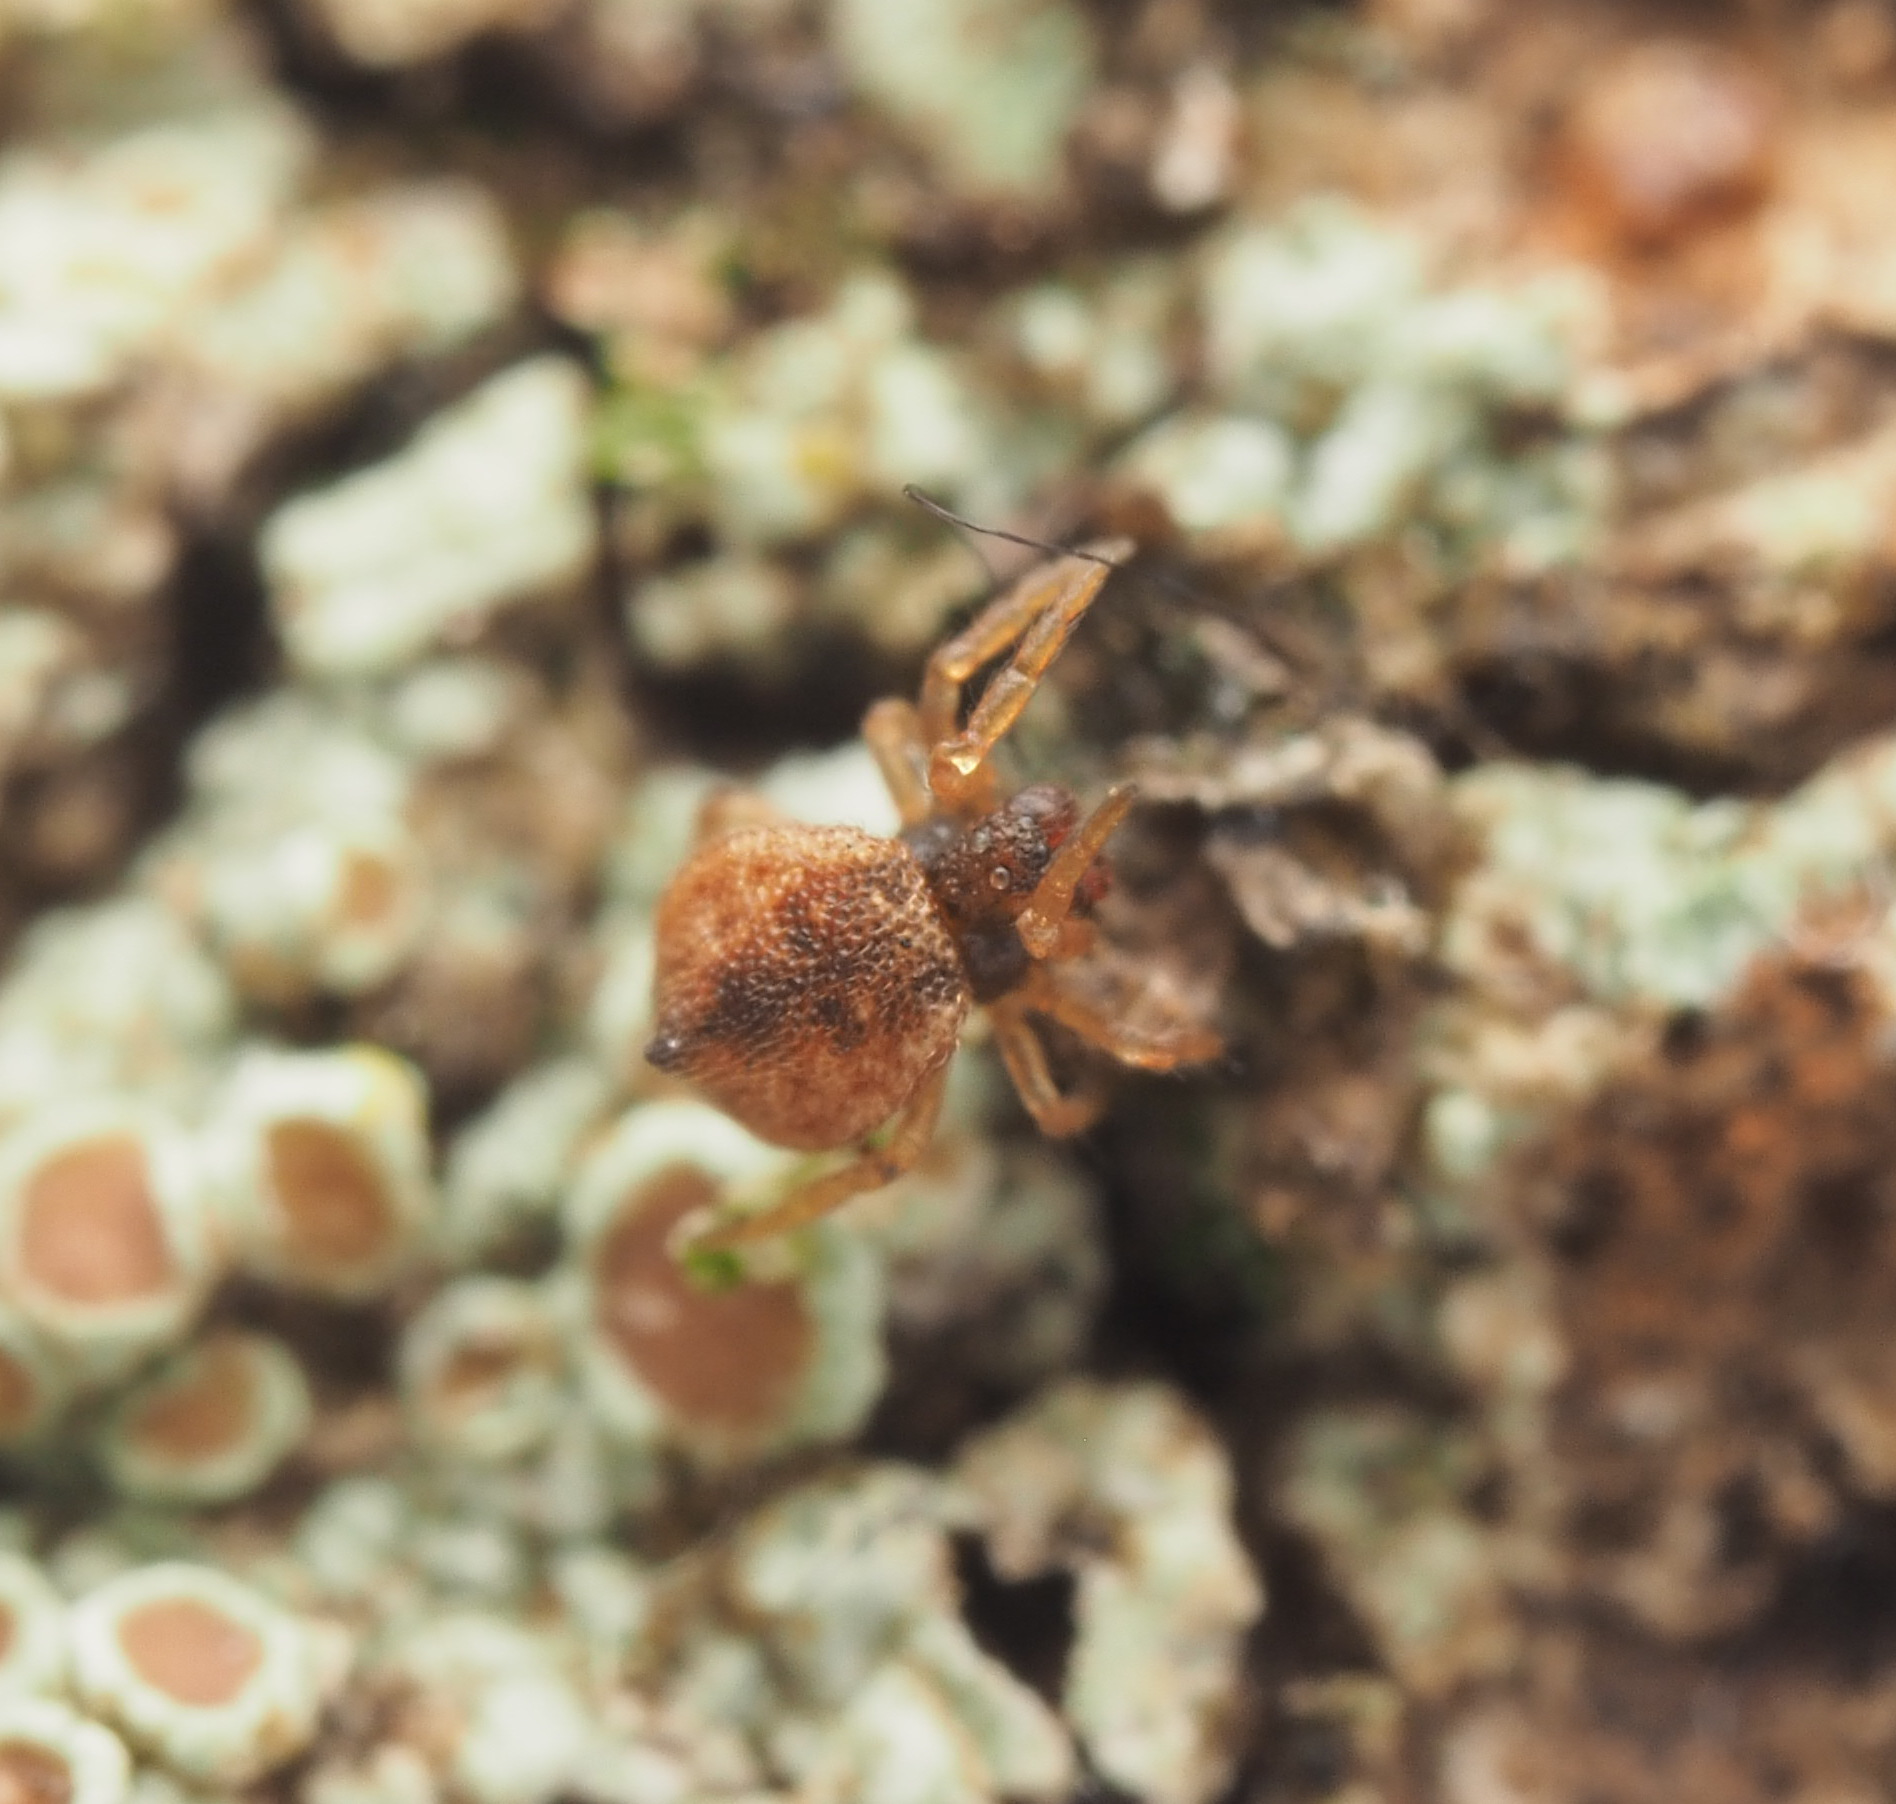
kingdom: Animalia
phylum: Arthropoda
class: Arachnida
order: Araneae
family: Theridiidae
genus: Phoroncidia
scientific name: Phoroncidia trituberculata
